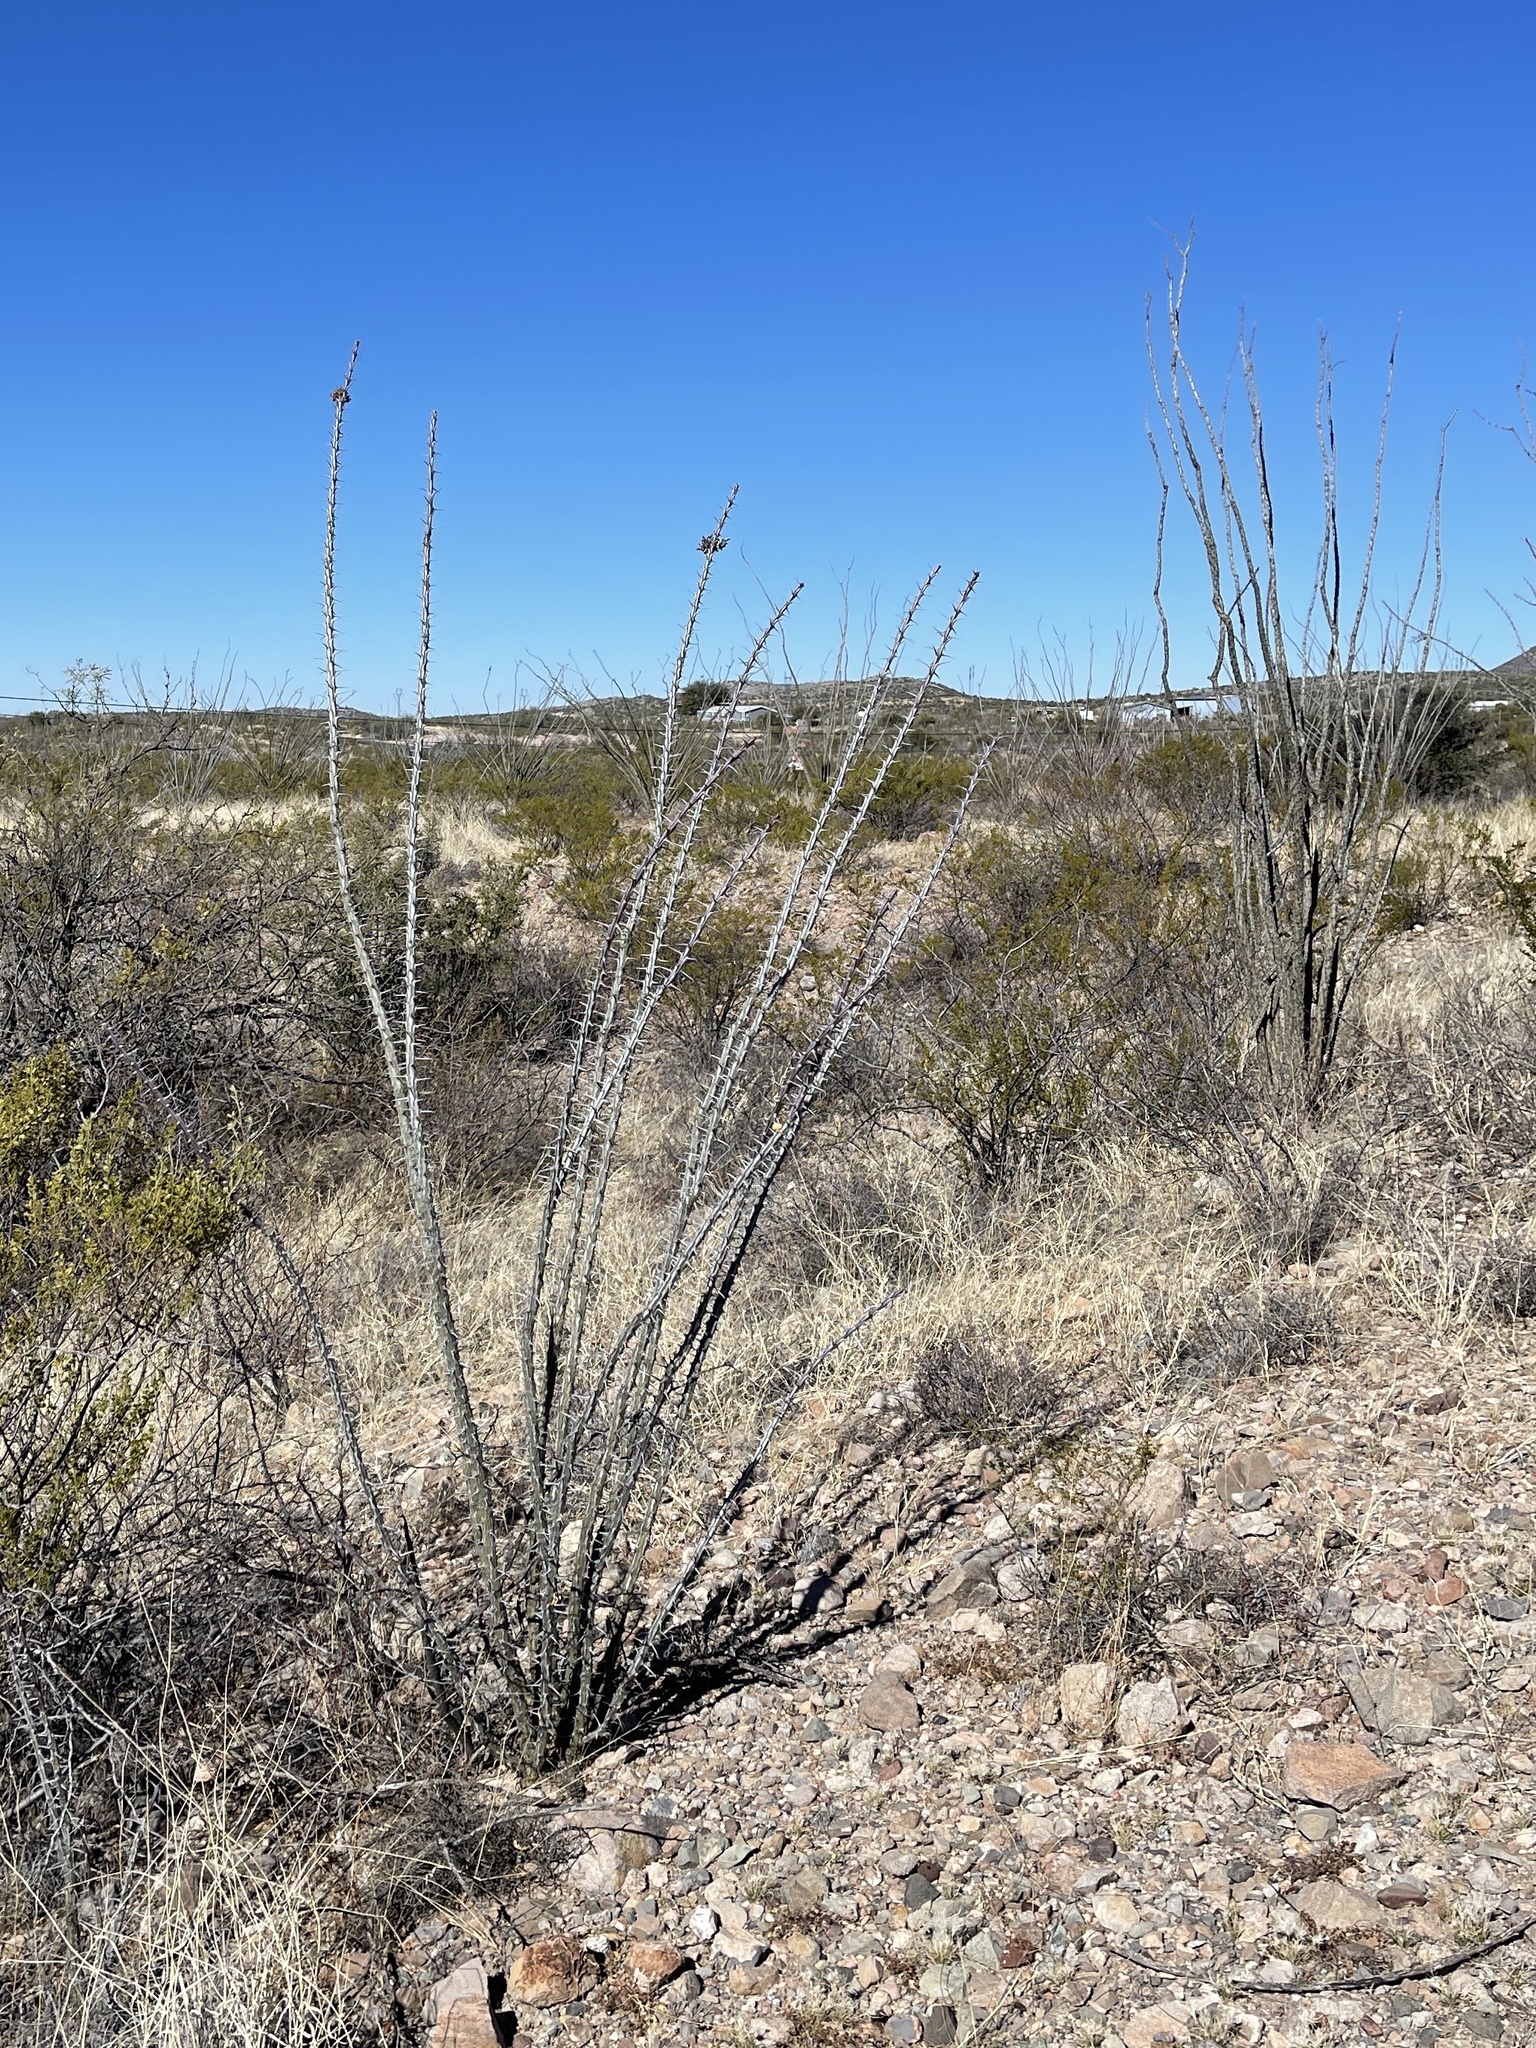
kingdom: Plantae
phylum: Tracheophyta
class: Magnoliopsida
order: Ericales
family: Fouquieriaceae
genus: Fouquieria
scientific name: Fouquieria splendens
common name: Vine-cactus
